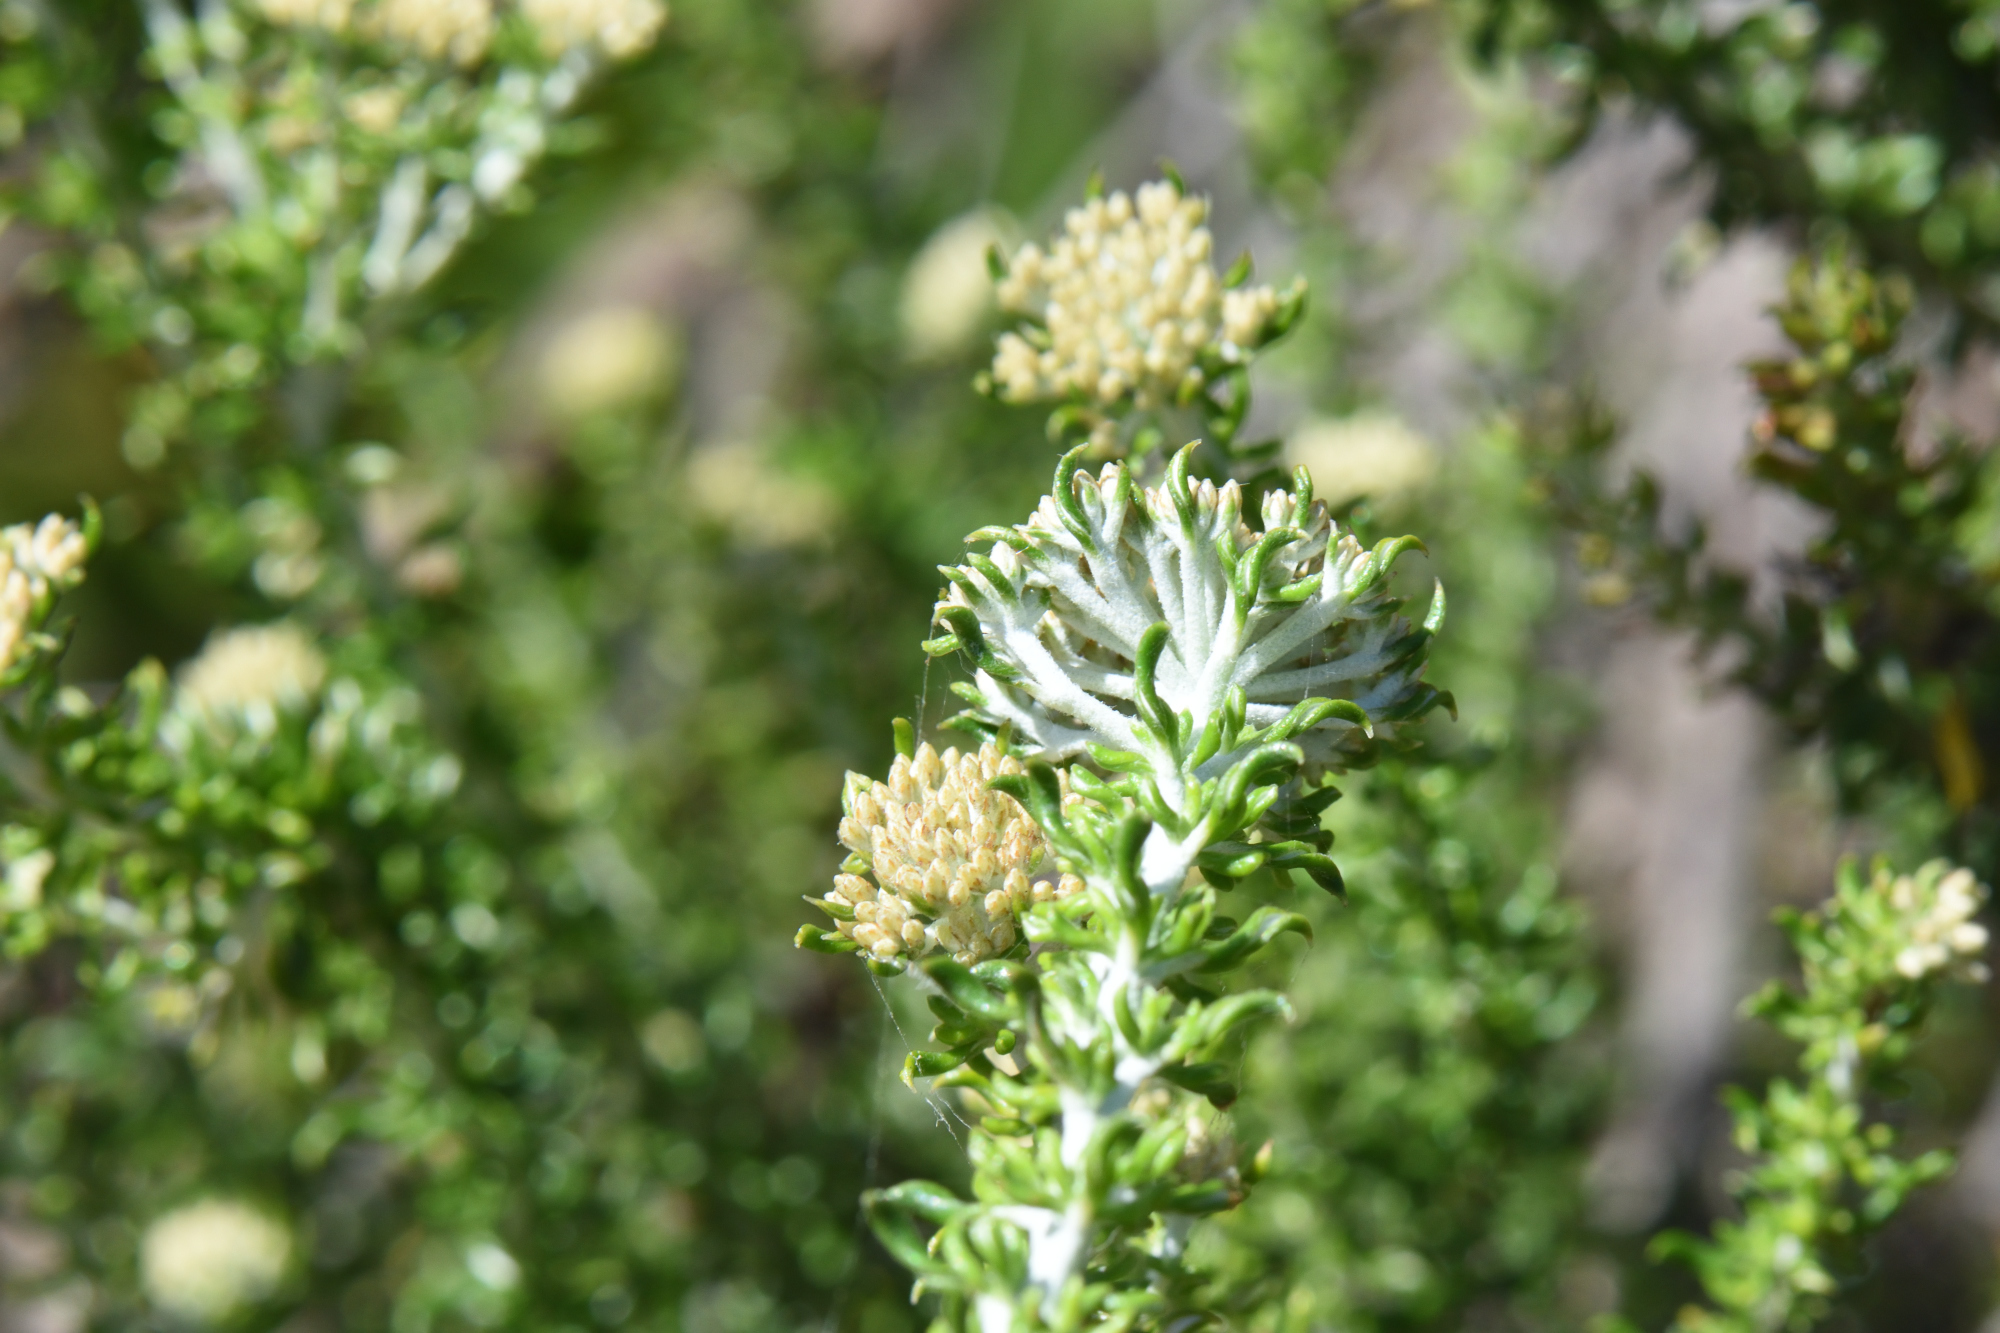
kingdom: Plantae
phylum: Tracheophyta
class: Magnoliopsida
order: Asterales
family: Asteraceae
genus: Metalasia
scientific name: Metalasia muricata
